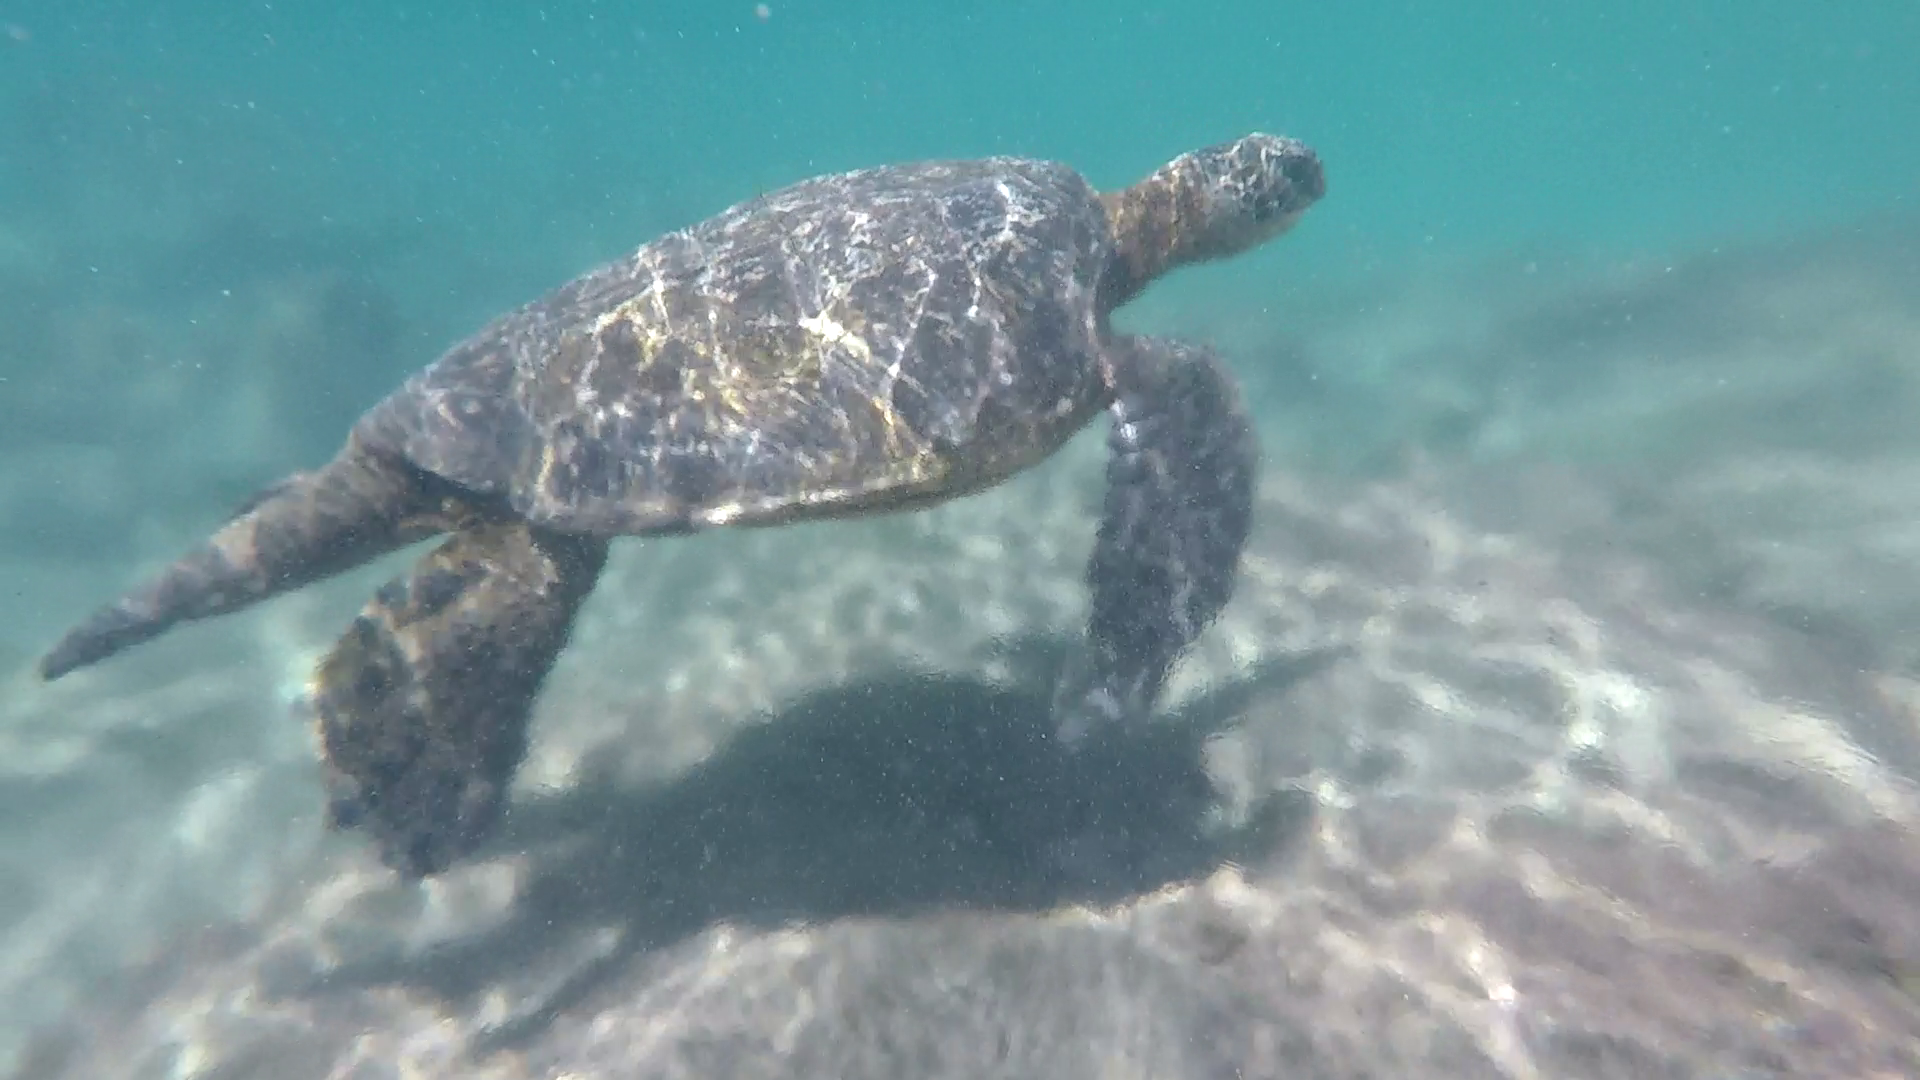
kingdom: Animalia
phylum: Chordata
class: Testudines
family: Cheloniidae
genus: Chelonia
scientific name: Chelonia mydas
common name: Green turtle
